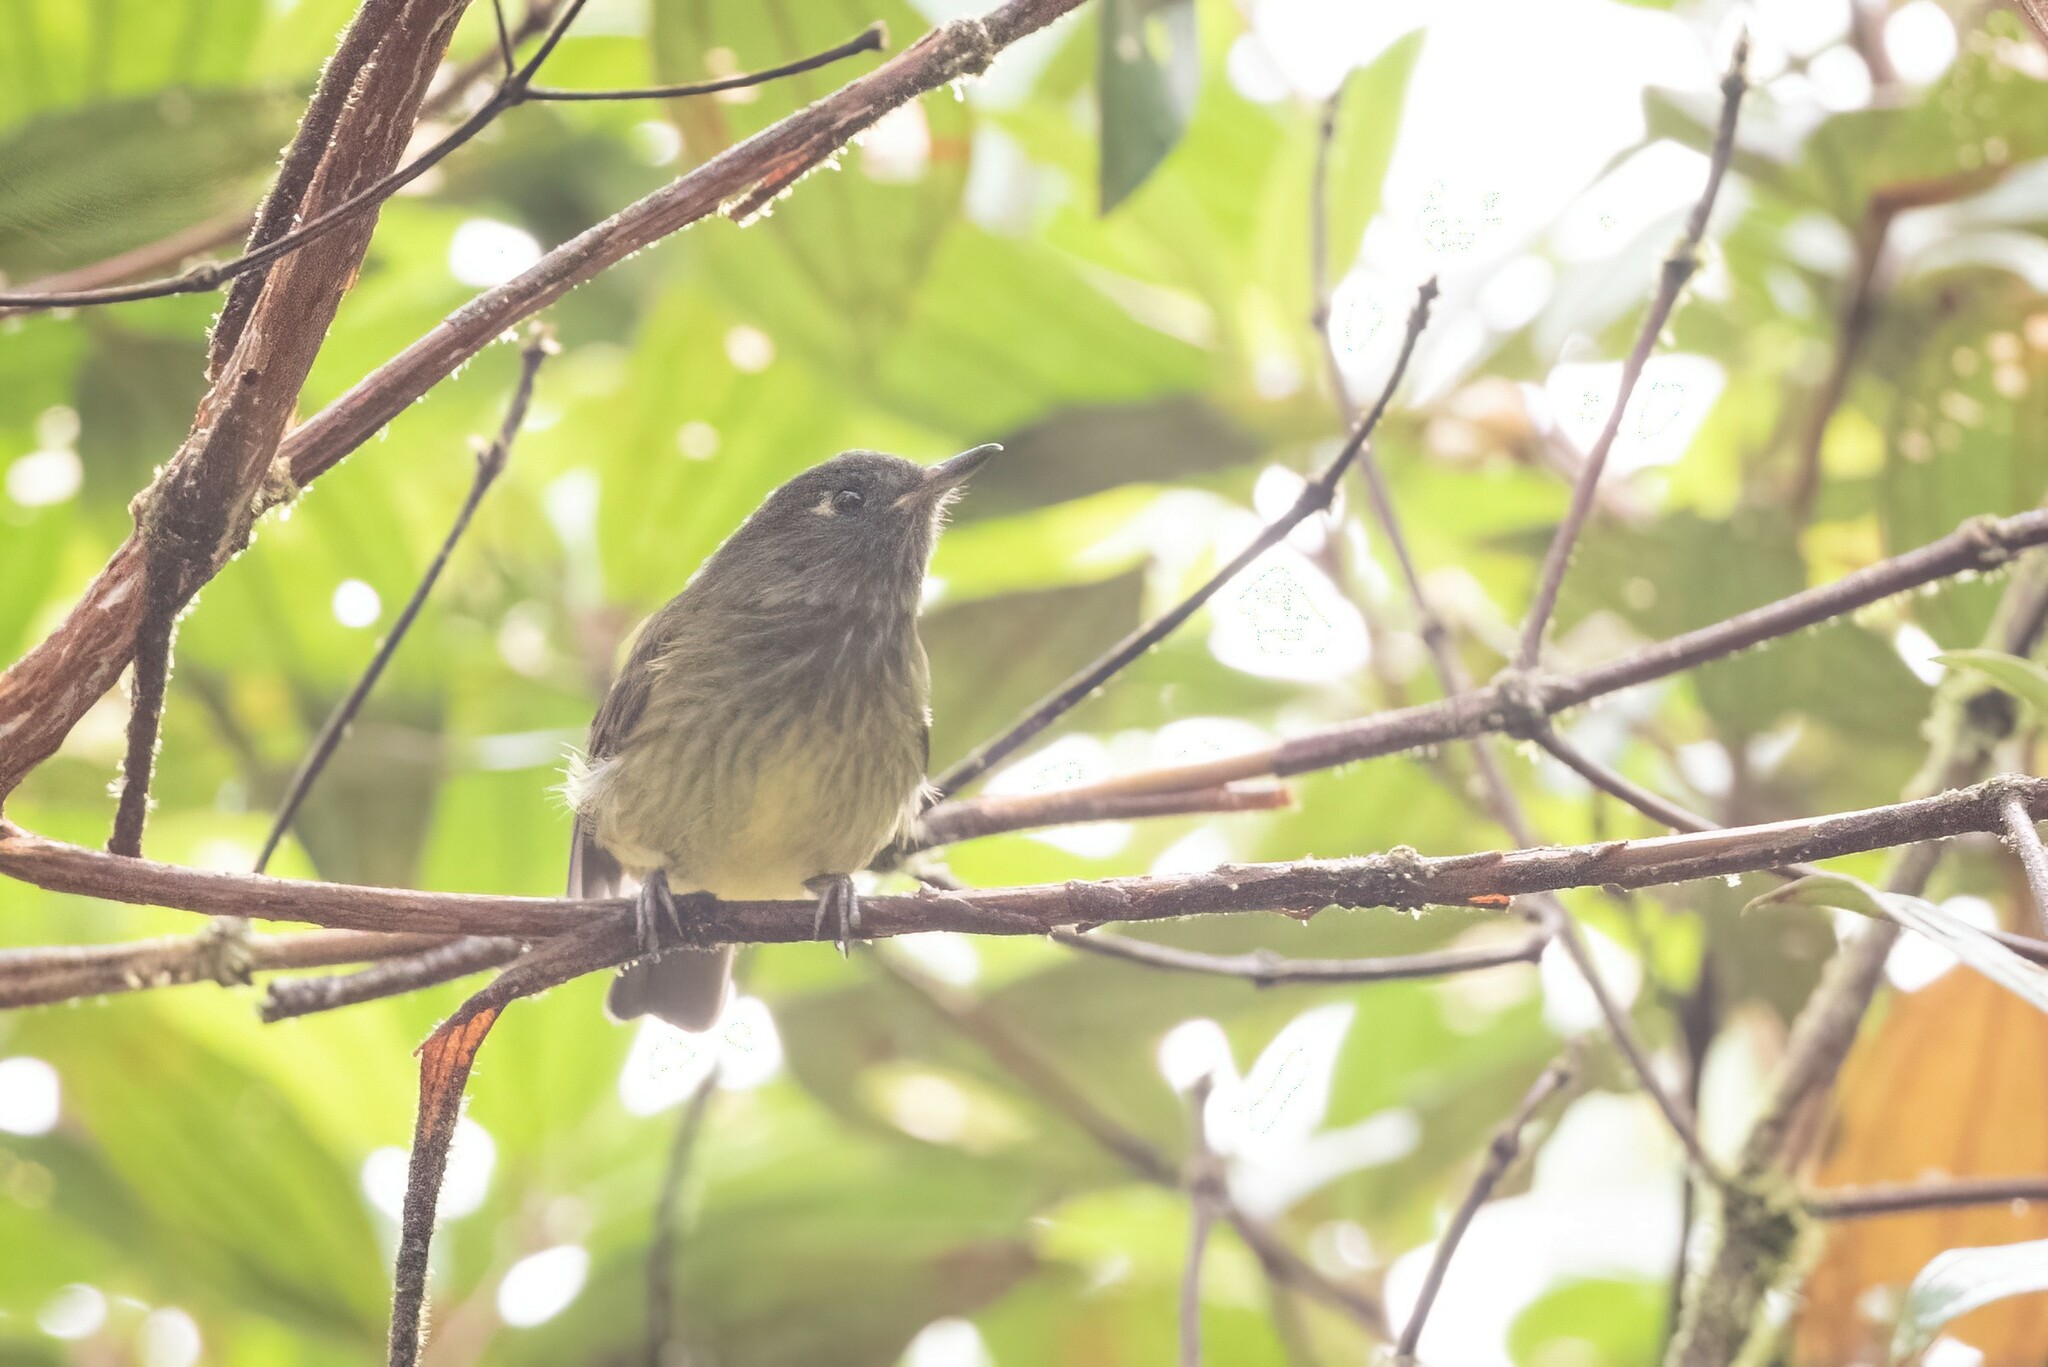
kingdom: Animalia
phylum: Chordata
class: Aves
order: Passeriformes
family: Tyrannidae
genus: Mionectes
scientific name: Mionectes striaticollis
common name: Streak-necked flycatcher
